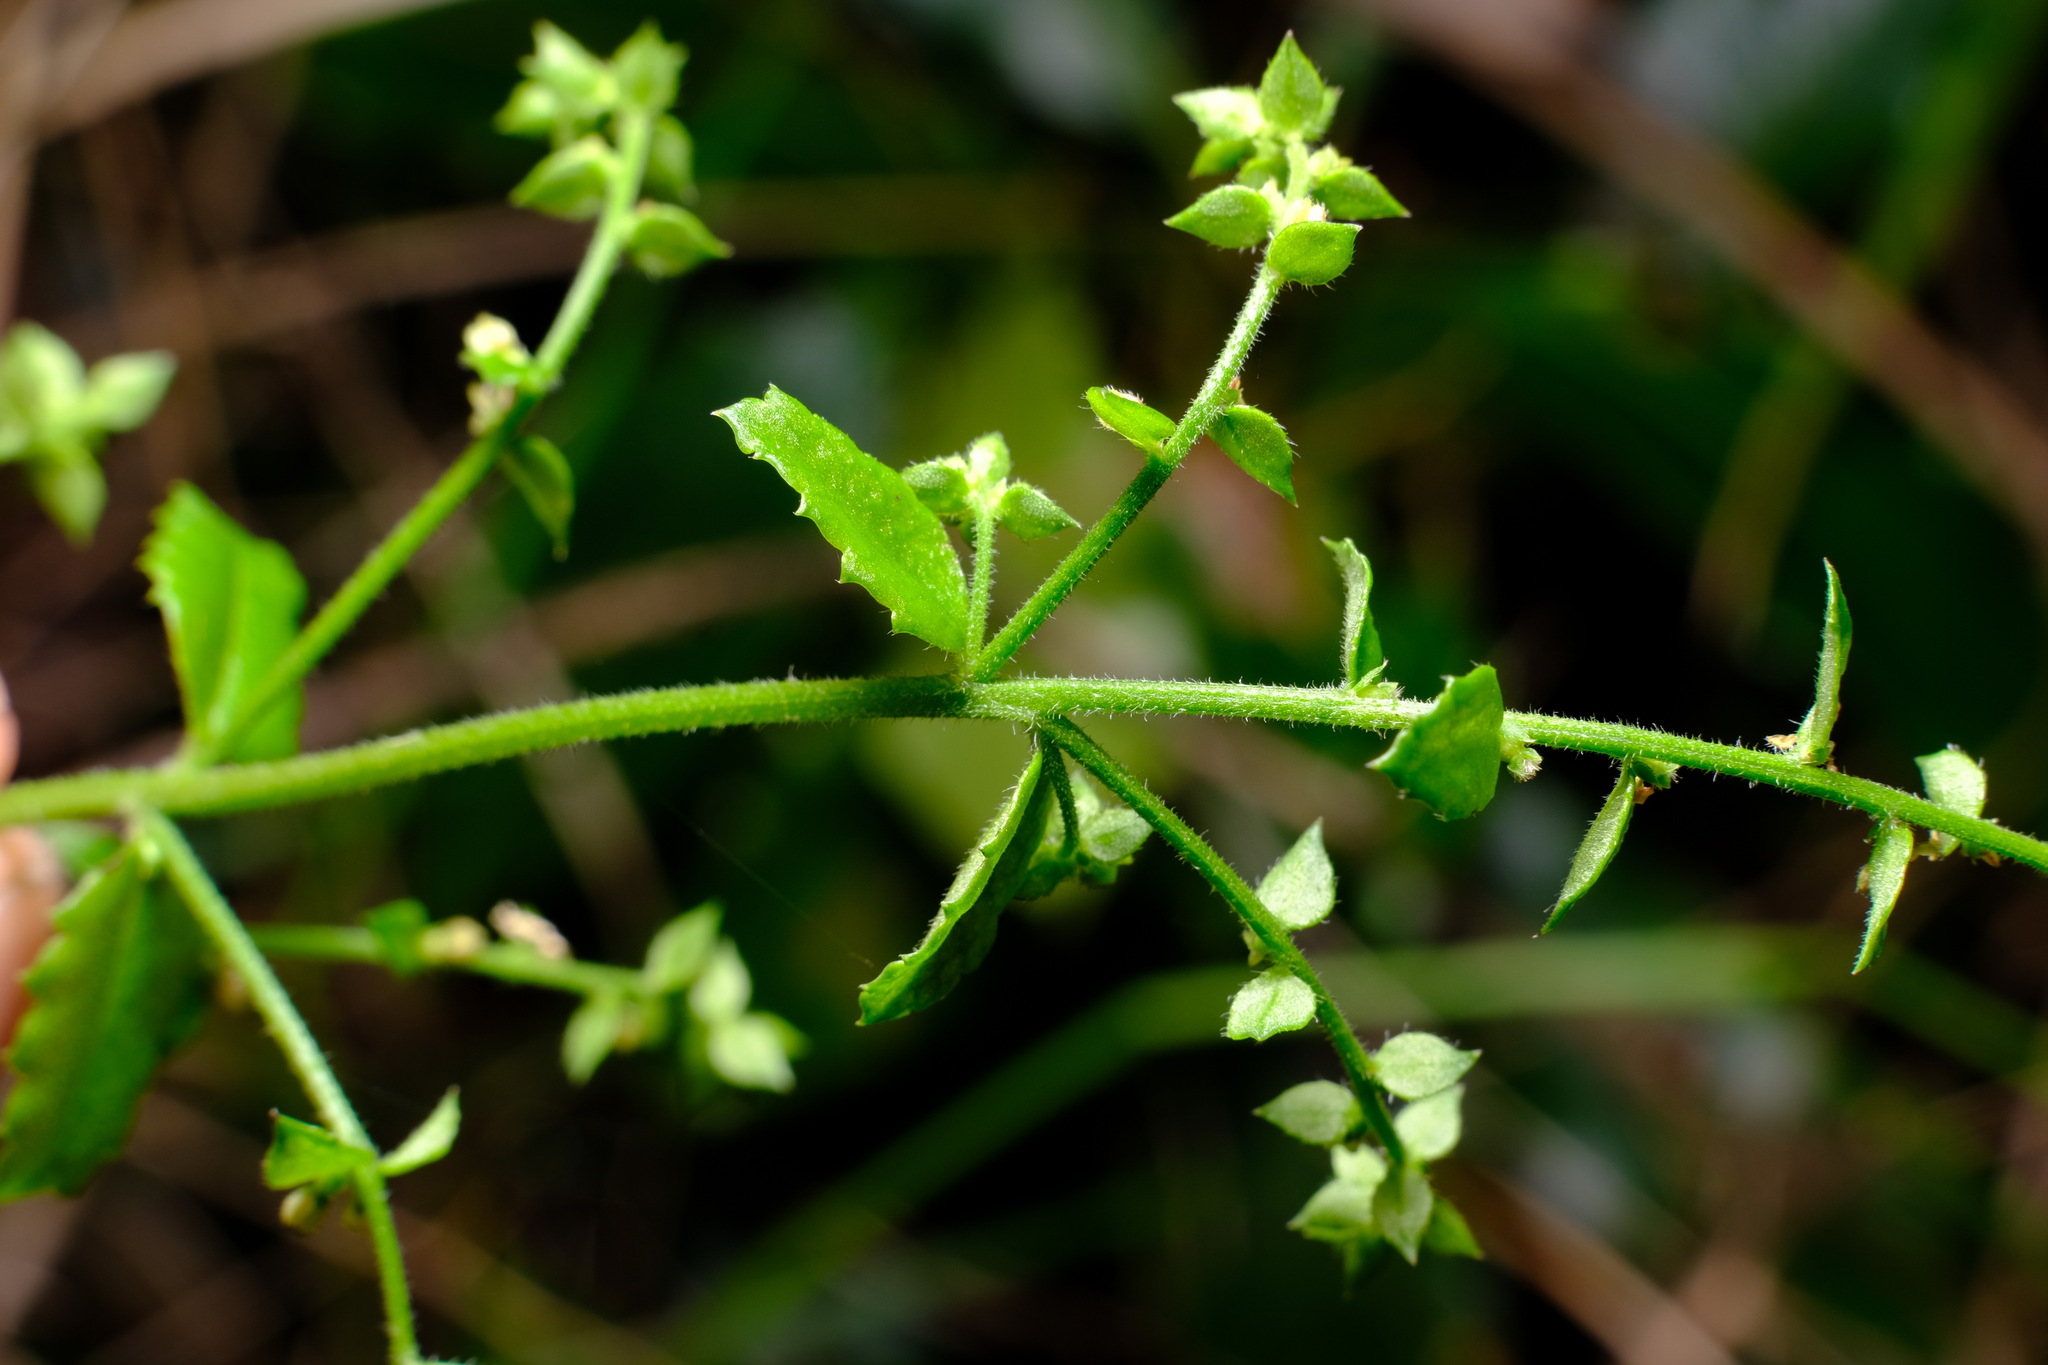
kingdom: Plantae
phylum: Tracheophyta
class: Magnoliopsida
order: Saxifragales
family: Haloragaceae
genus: Gonocarpus
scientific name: Gonocarpus humilis
